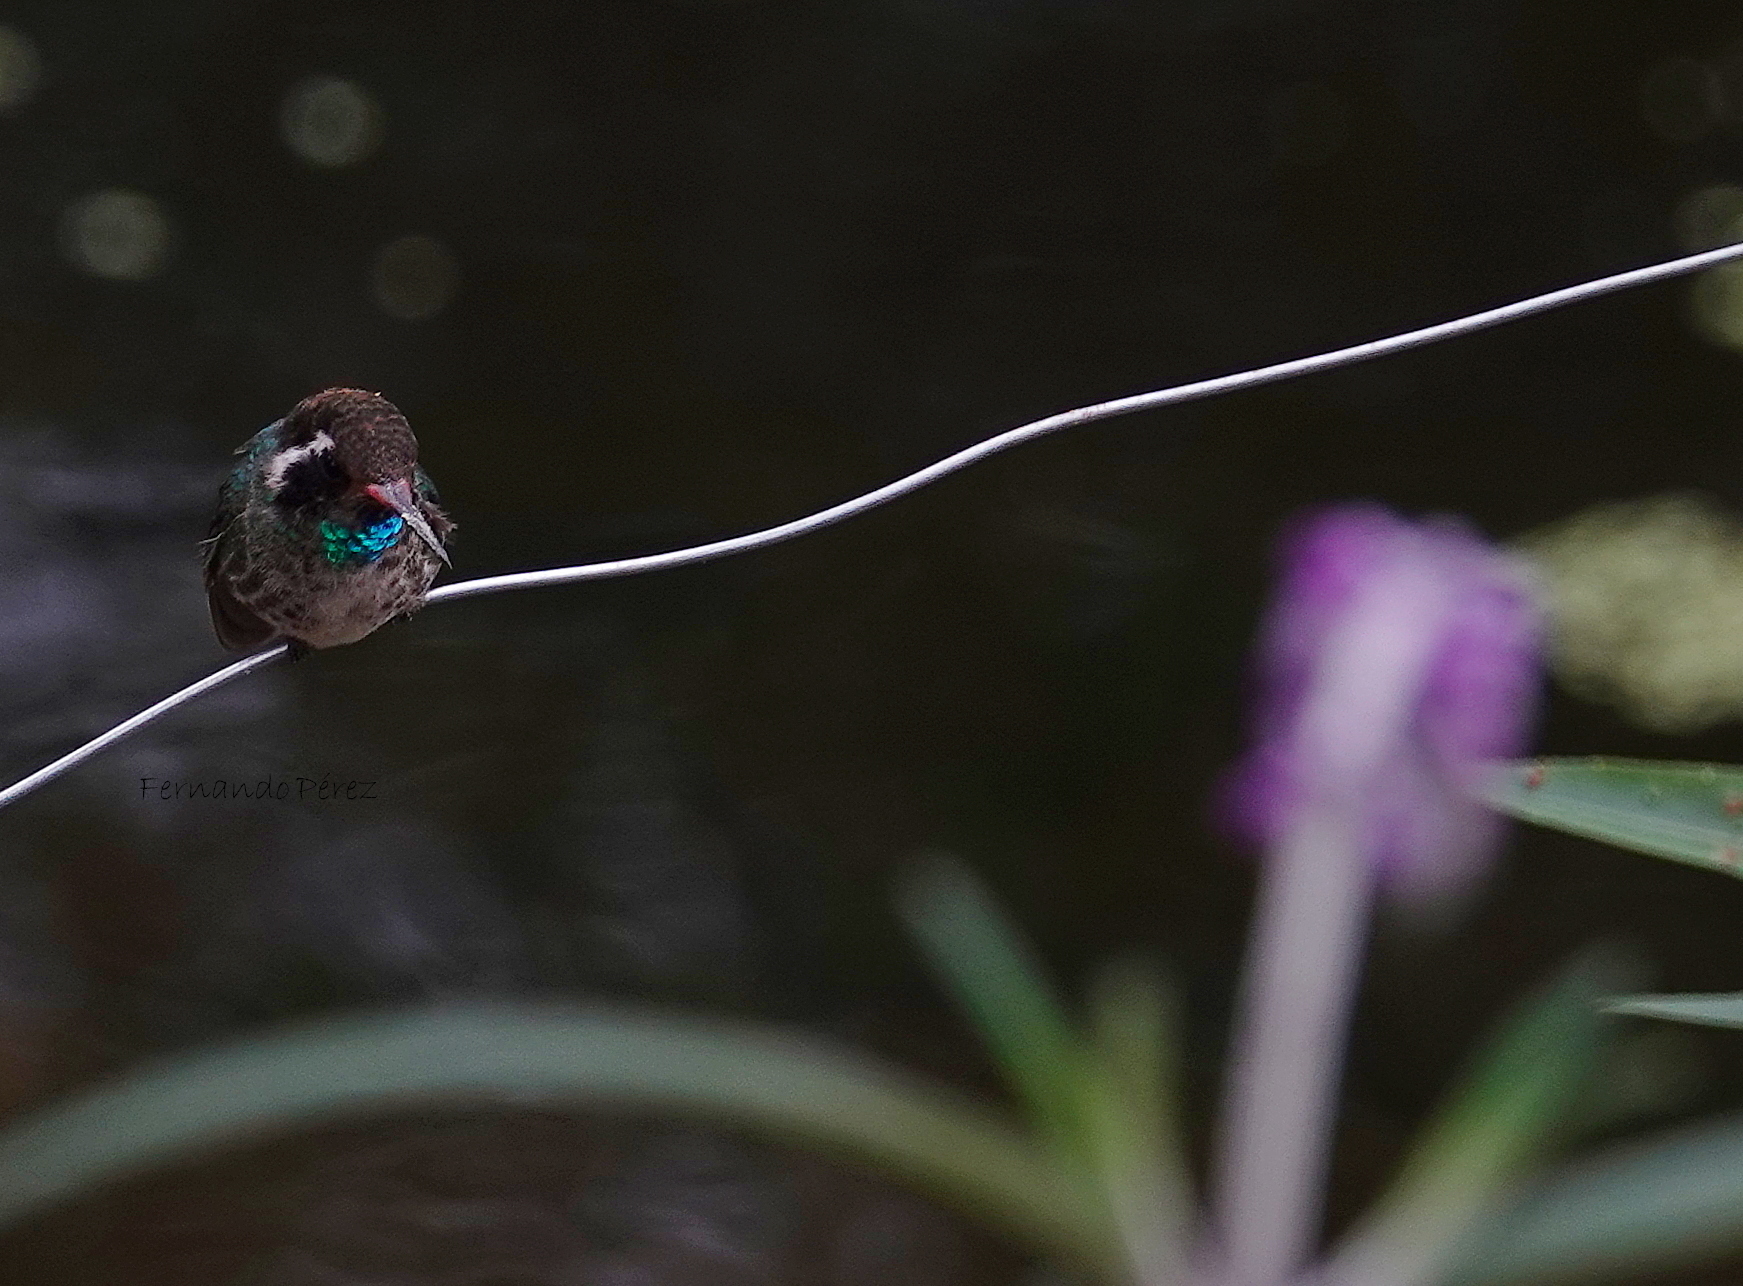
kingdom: Animalia
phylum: Chordata
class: Aves
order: Apodiformes
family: Trochilidae
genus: Basilinna
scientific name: Basilinna leucotis
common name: White-eared hummingbird
